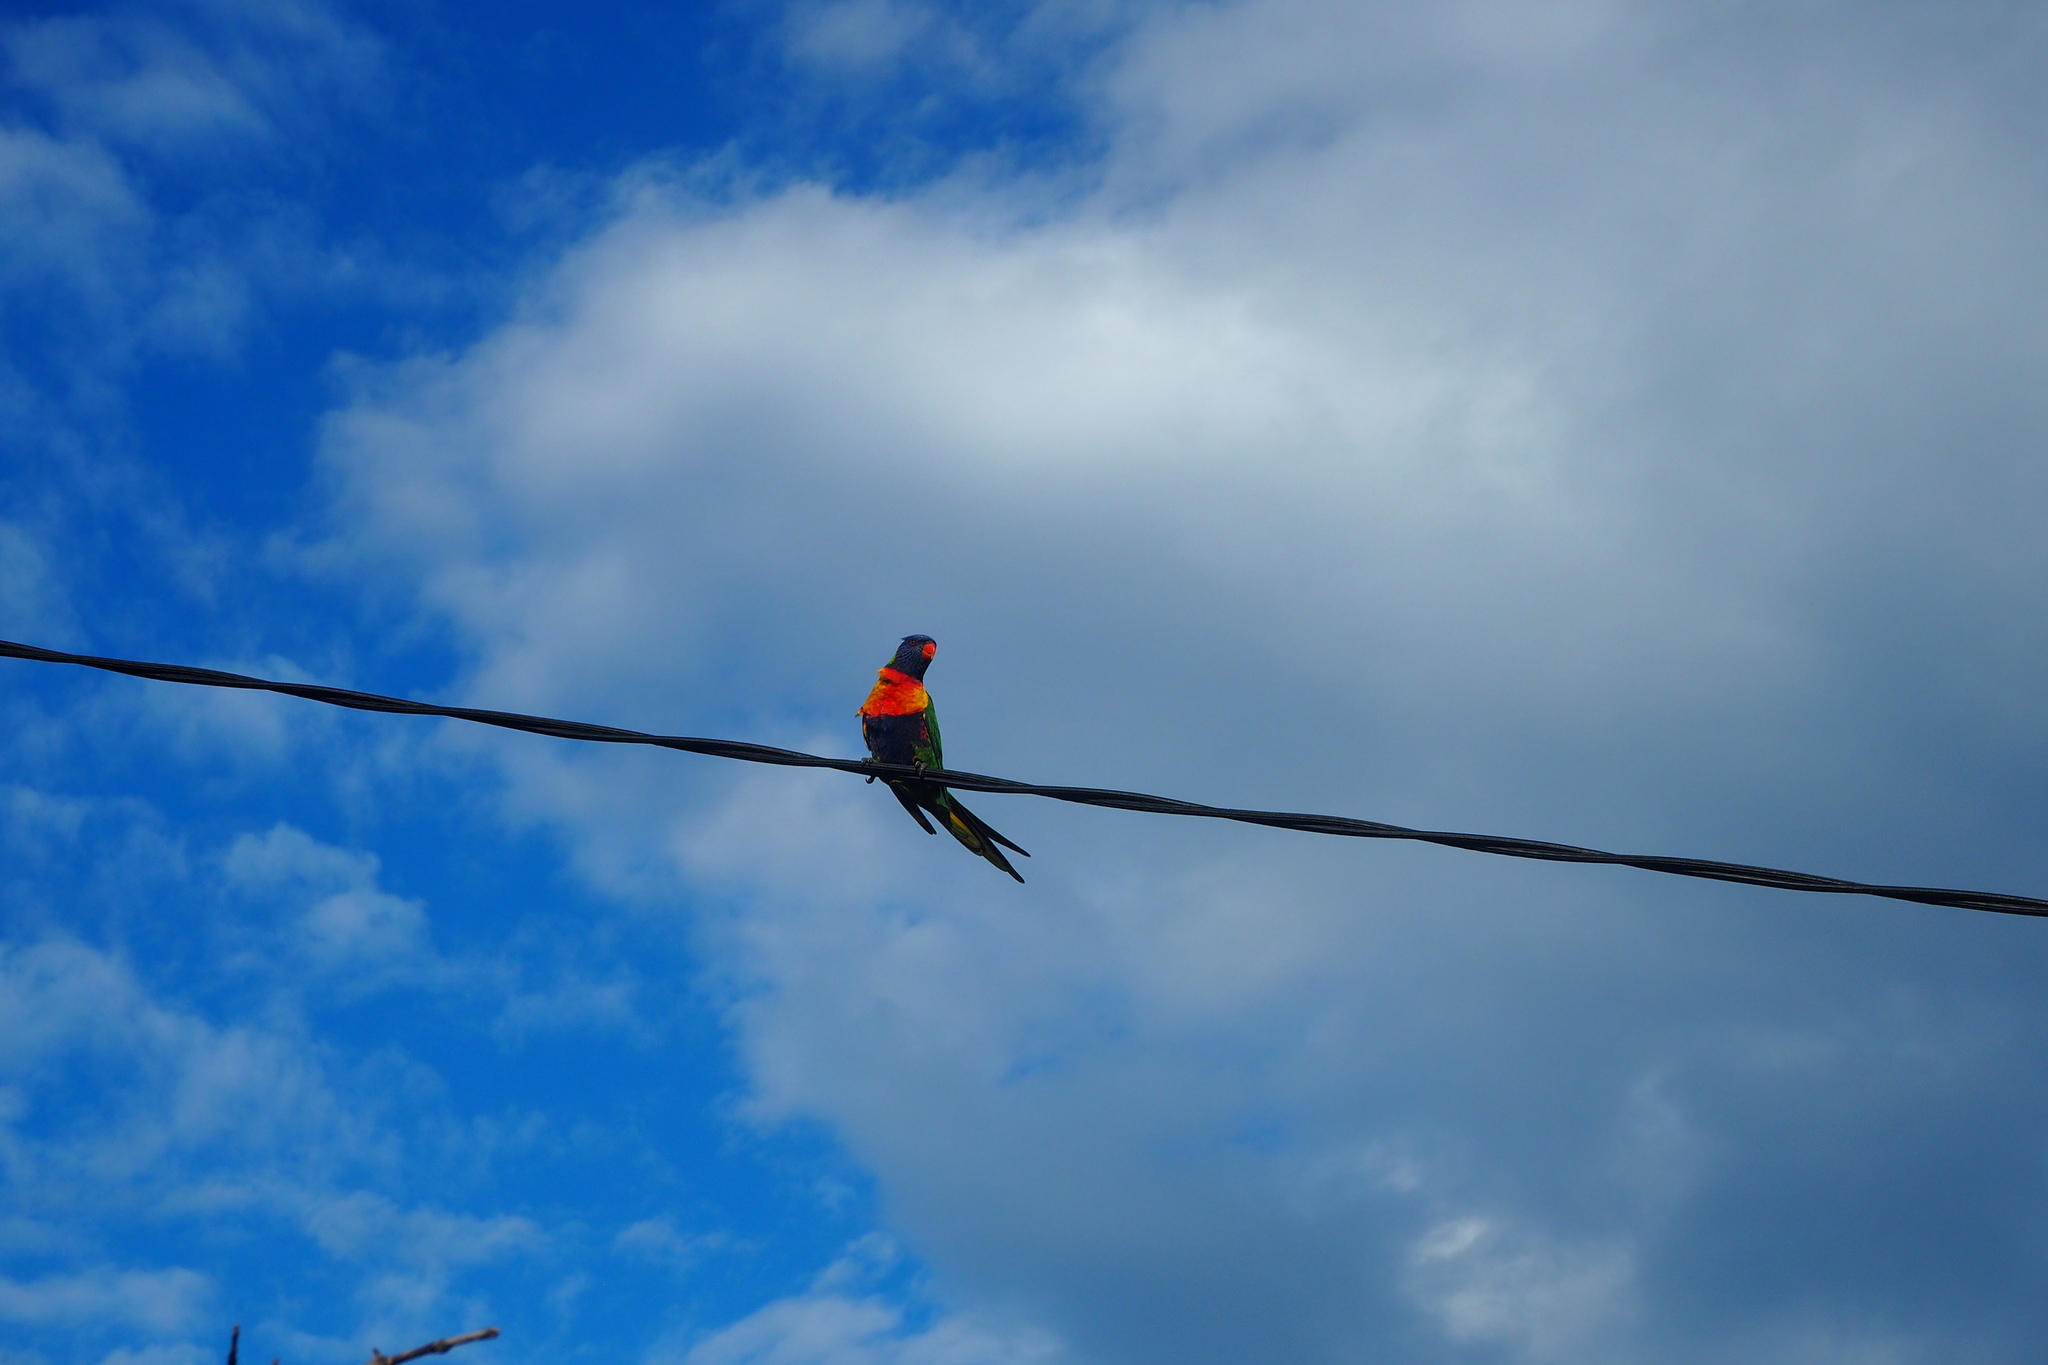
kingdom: Animalia
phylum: Chordata
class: Aves
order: Psittaciformes
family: Psittacidae
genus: Trichoglossus
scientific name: Trichoglossus haematodus
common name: Coconut lorikeet
